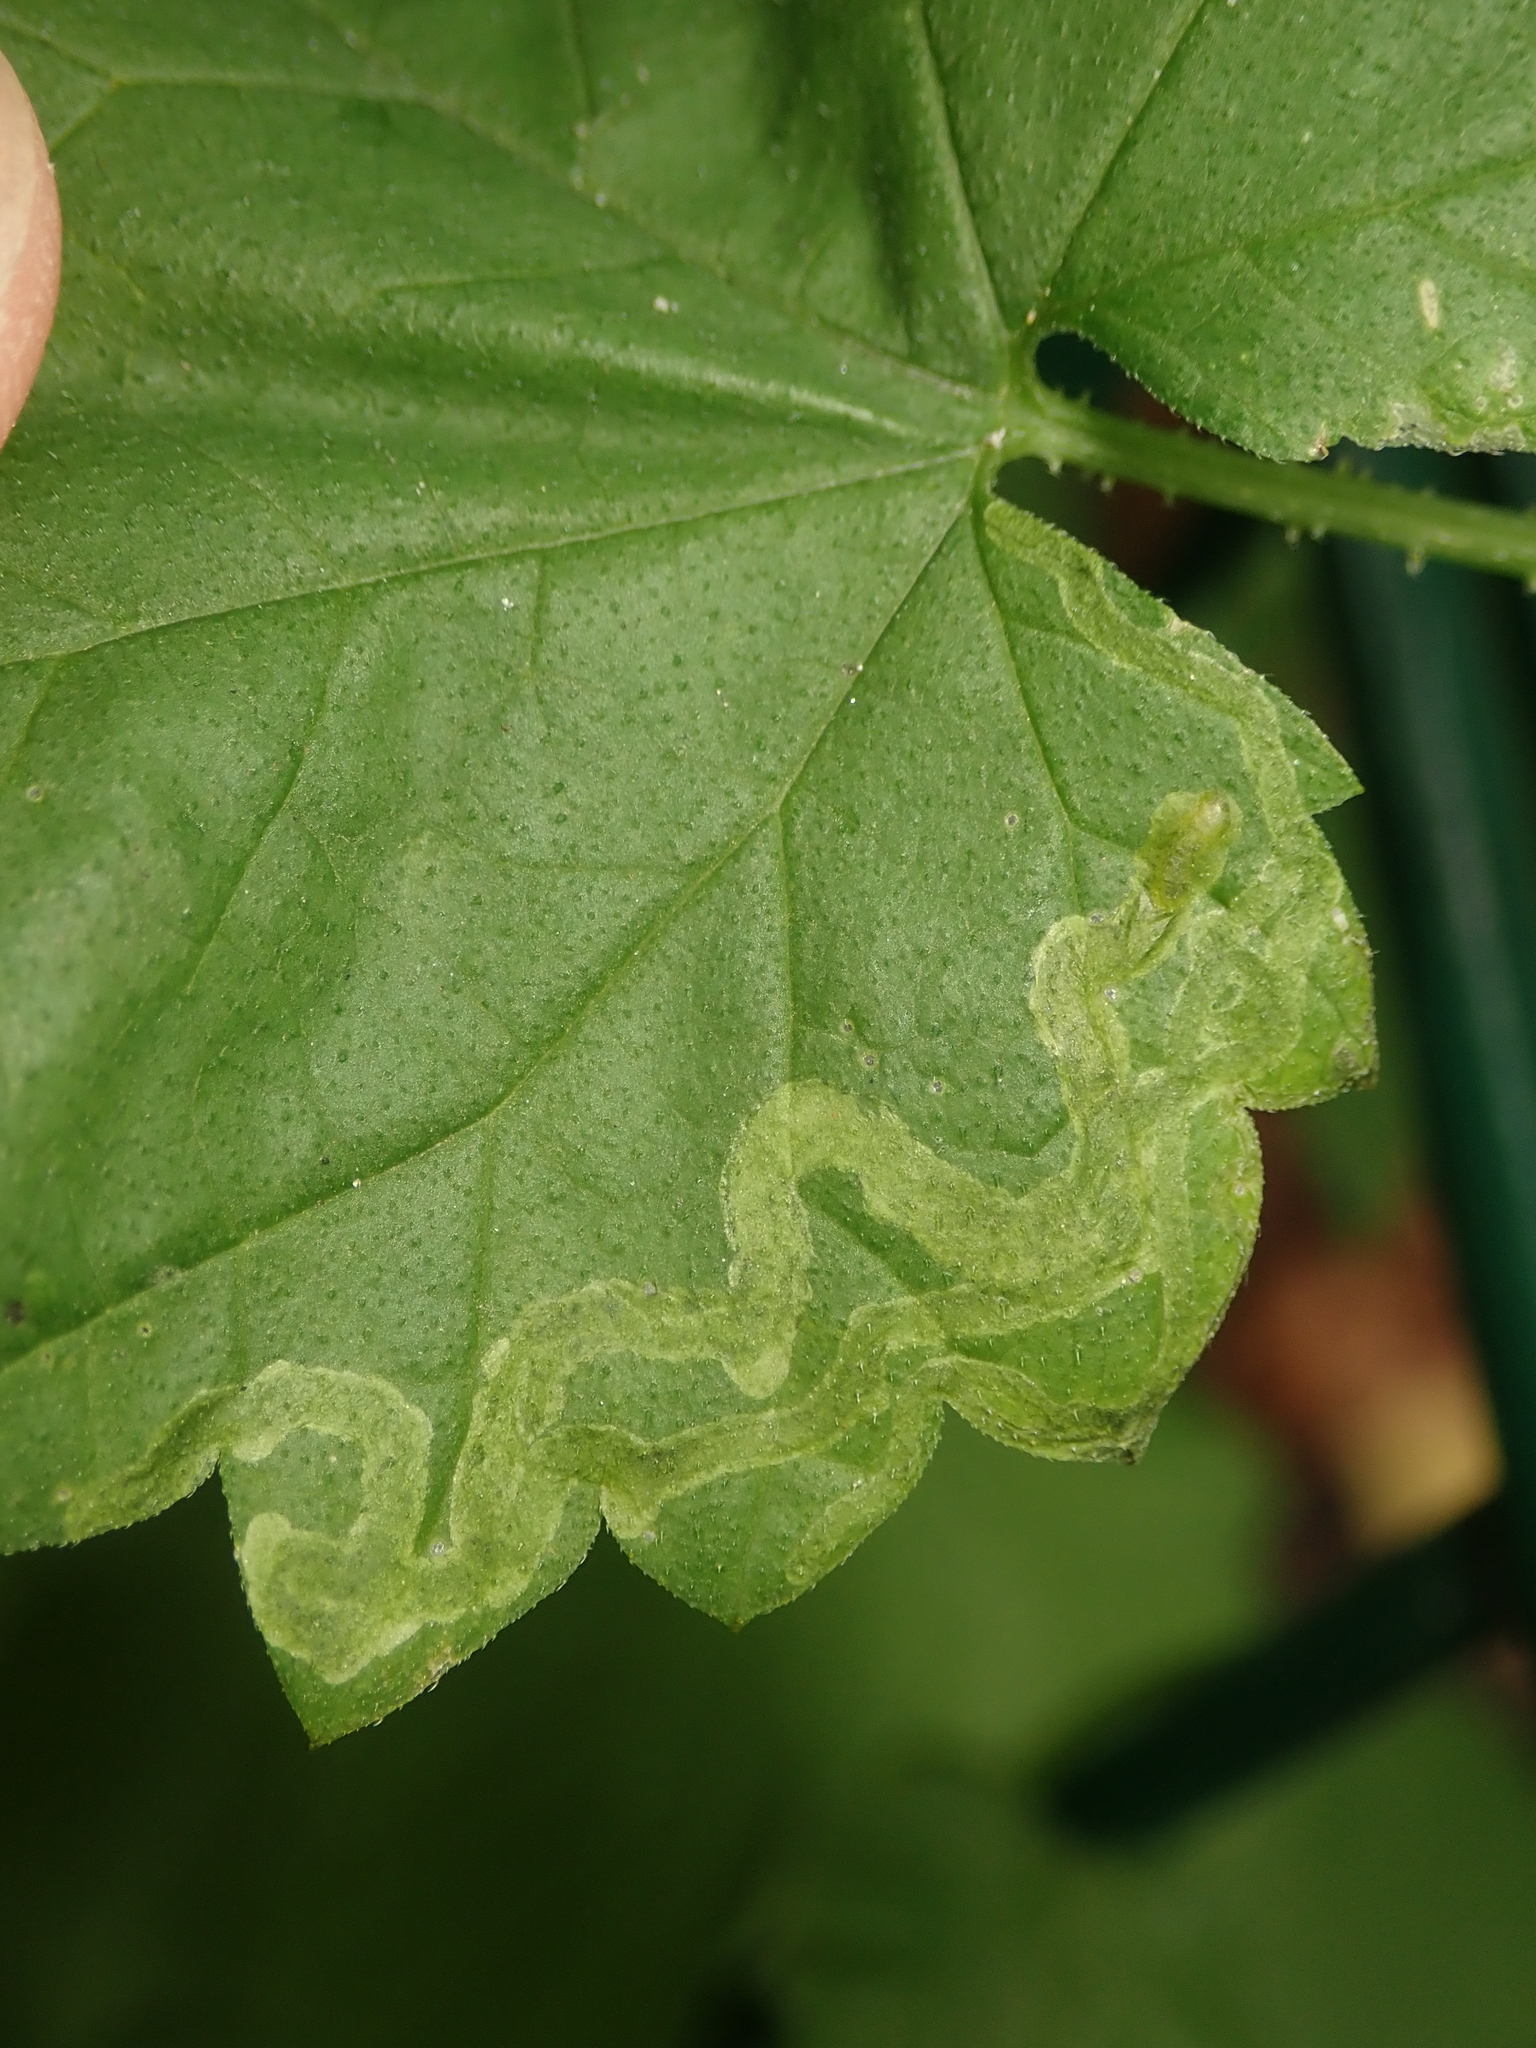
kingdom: Animalia
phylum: Arthropoda
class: Insecta
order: Diptera
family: Agromyzidae
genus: Agromyza
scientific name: Agromyza flaviceps
